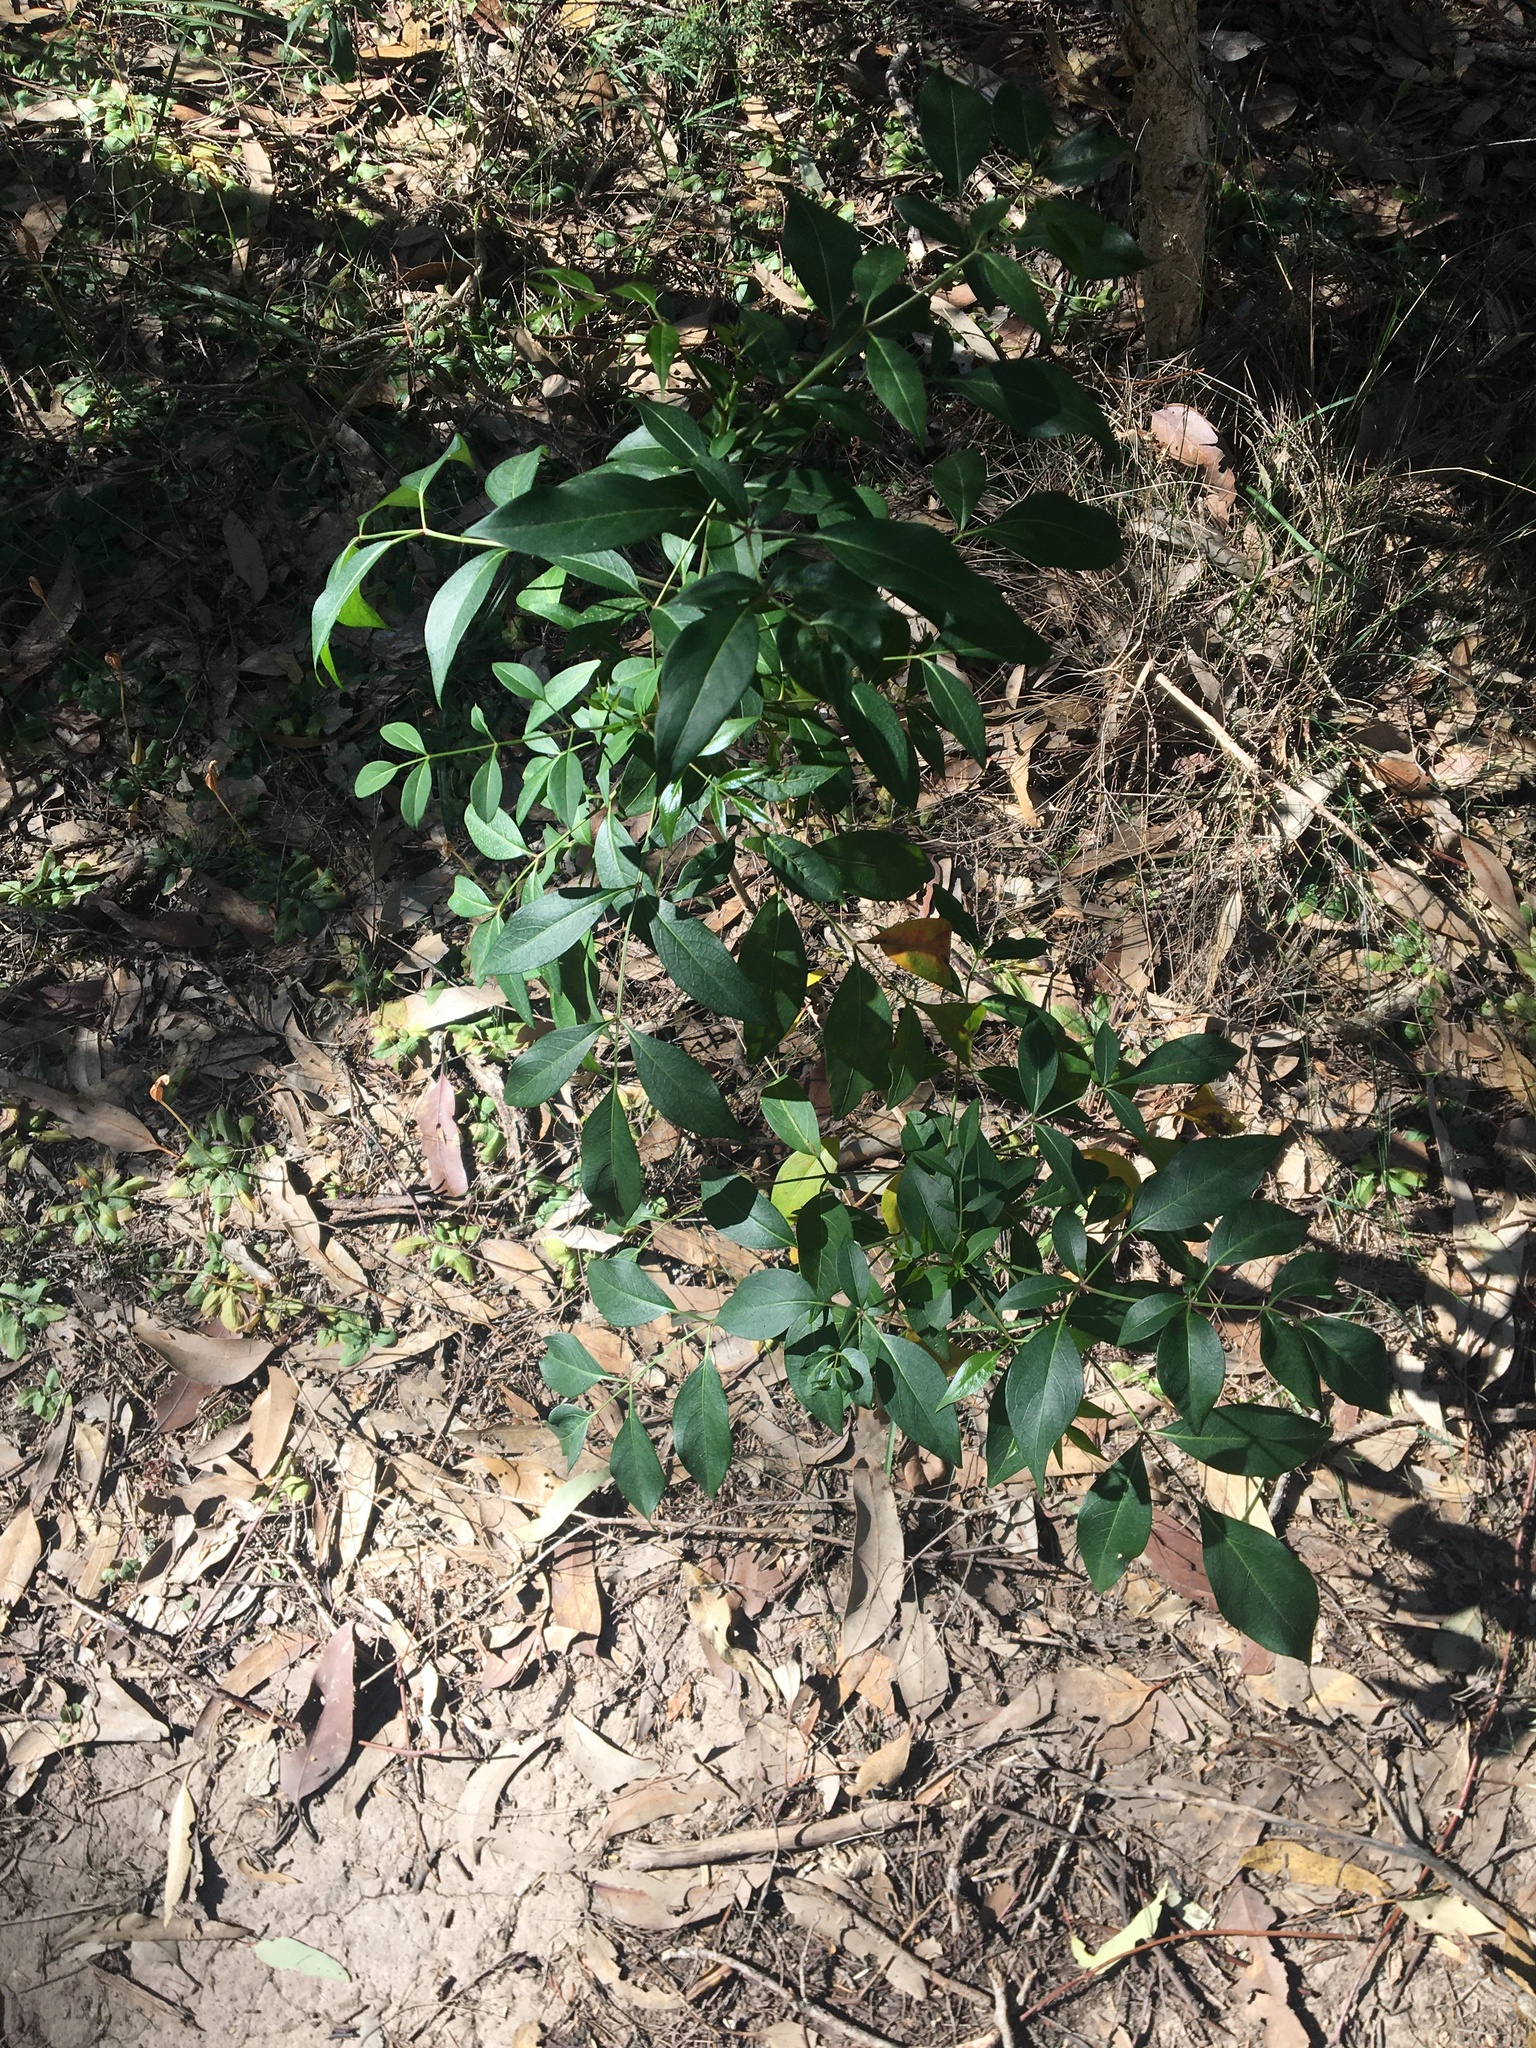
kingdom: Plantae
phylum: Tracheophyta
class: Magnoliopsida
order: Apiales
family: Araliaceae
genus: Polyscias
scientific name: Polyscias sambucifolia
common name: Elderberry-ash
